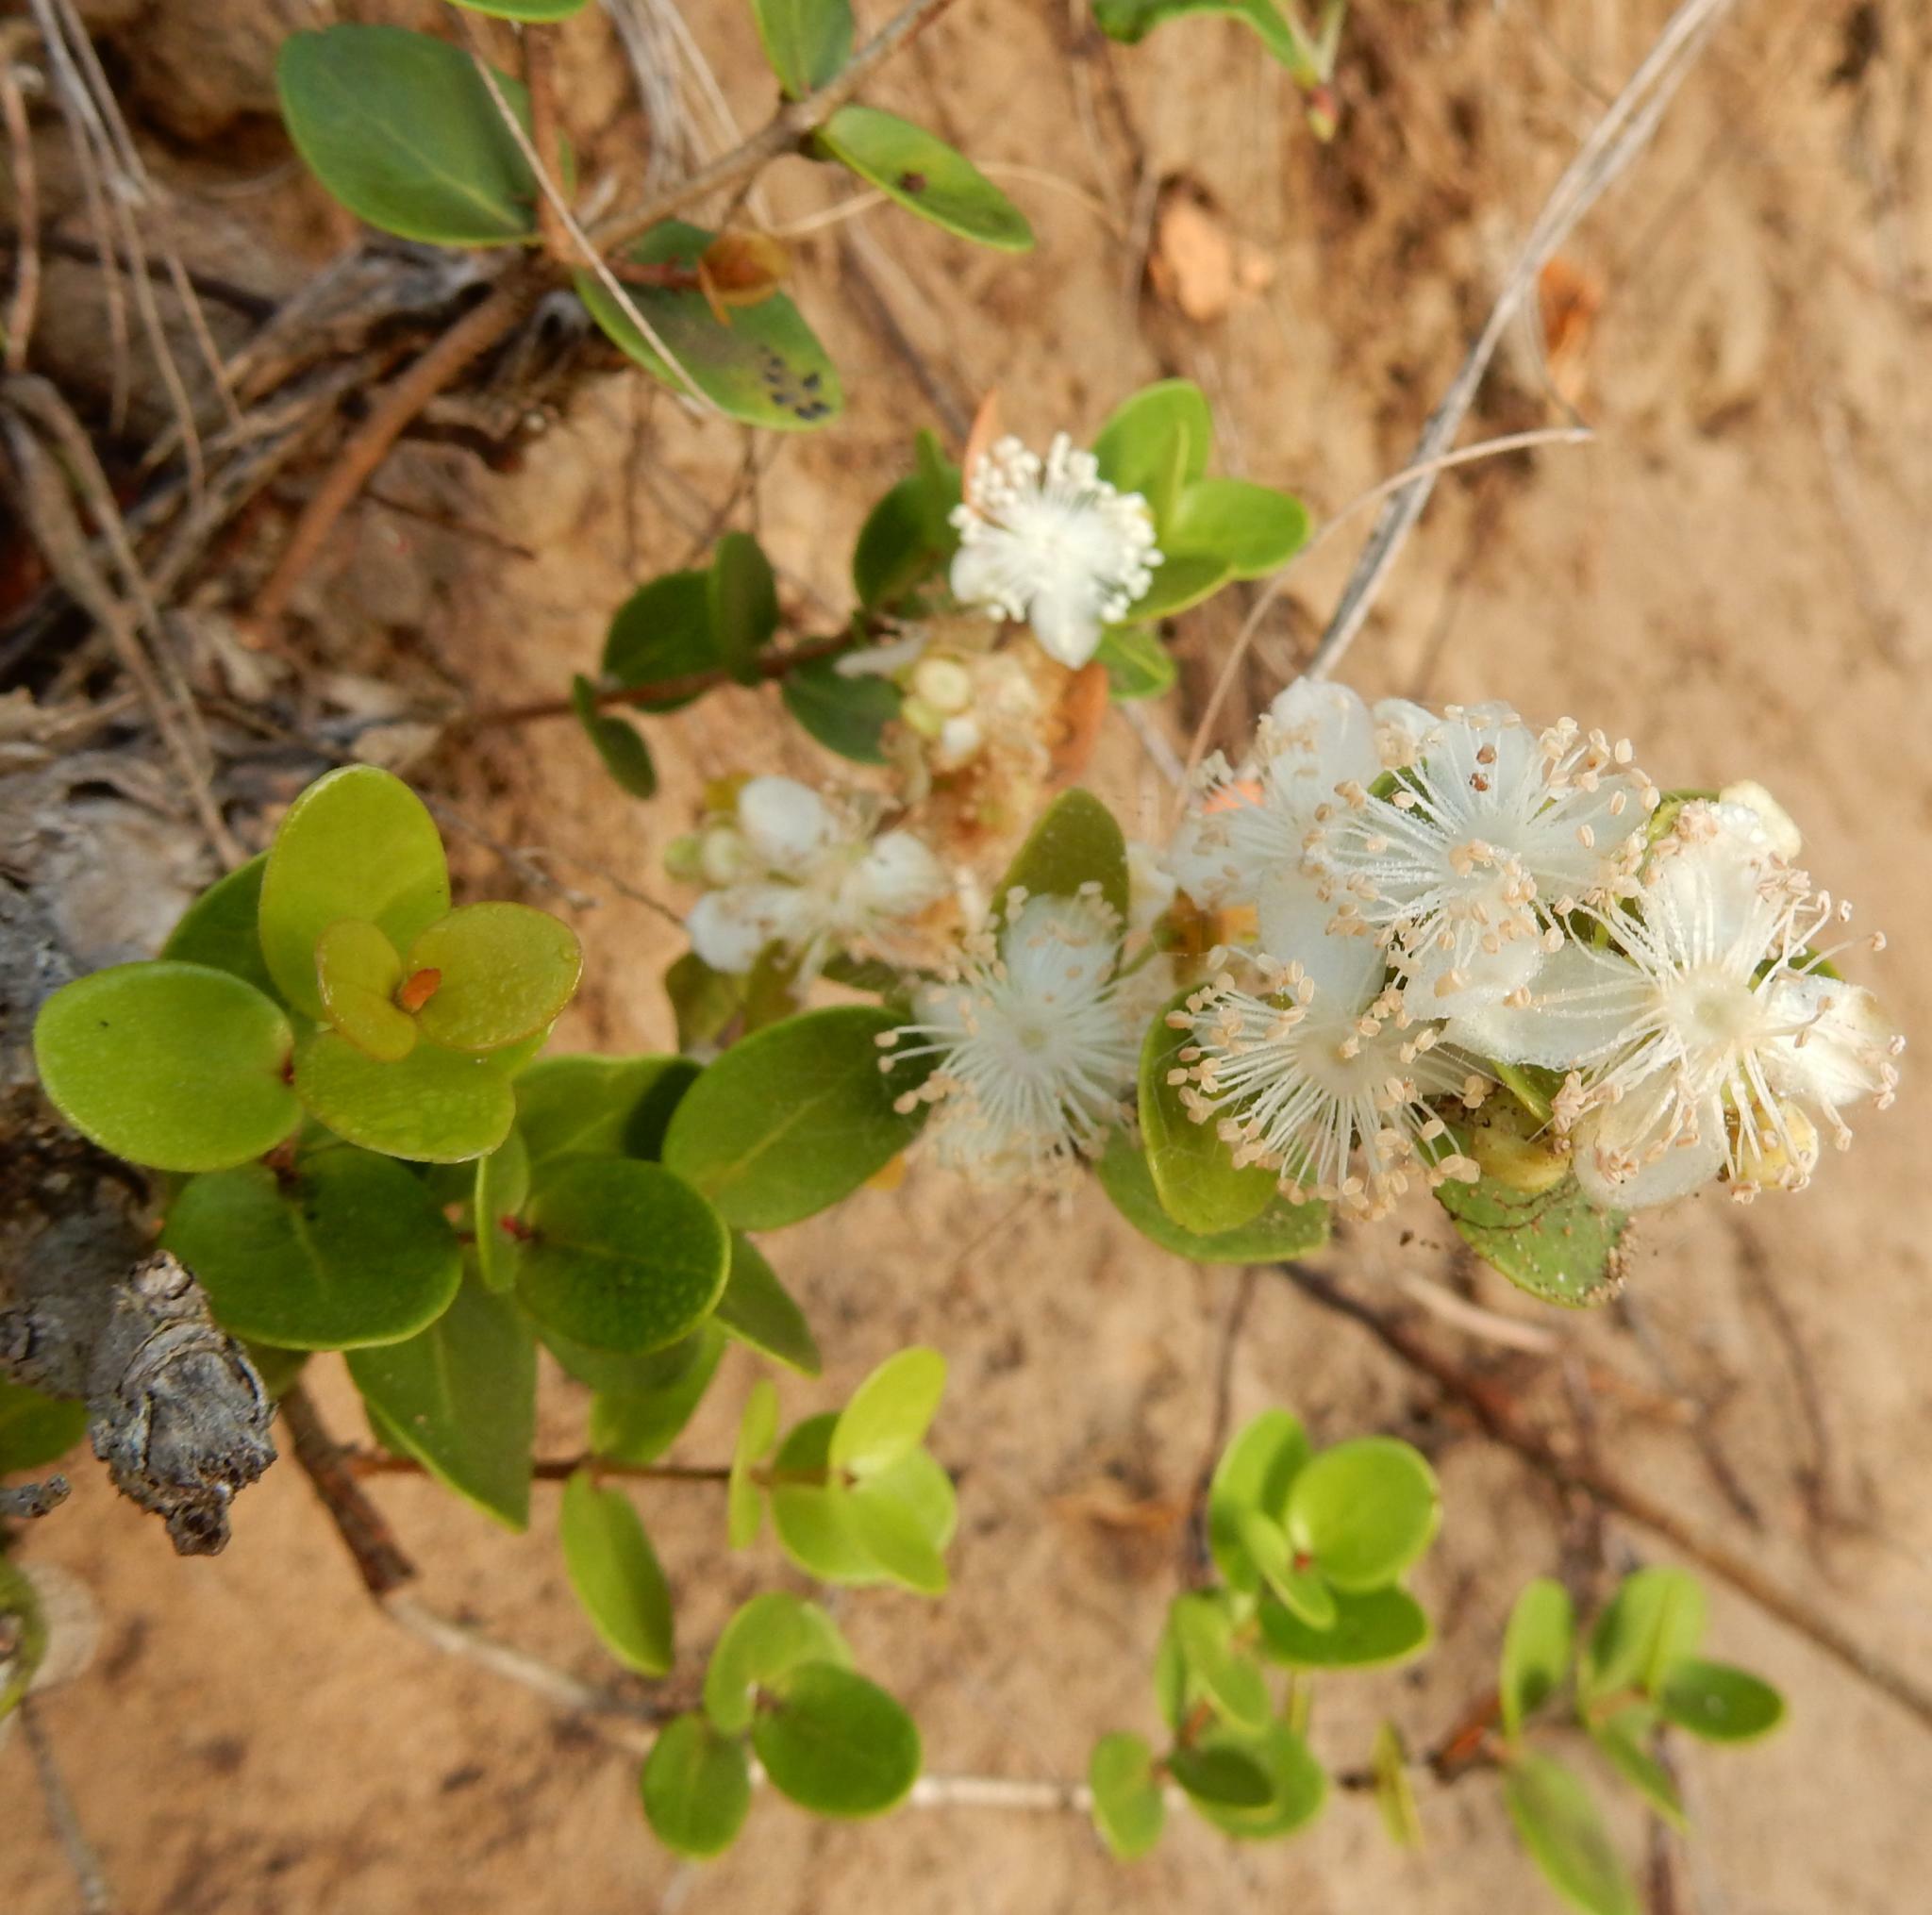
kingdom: Plantae
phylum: Tracheophyta
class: Magnoliopsida
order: Myrtales
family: Myrtaceae
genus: Eugenia
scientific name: Eugenia capensis
